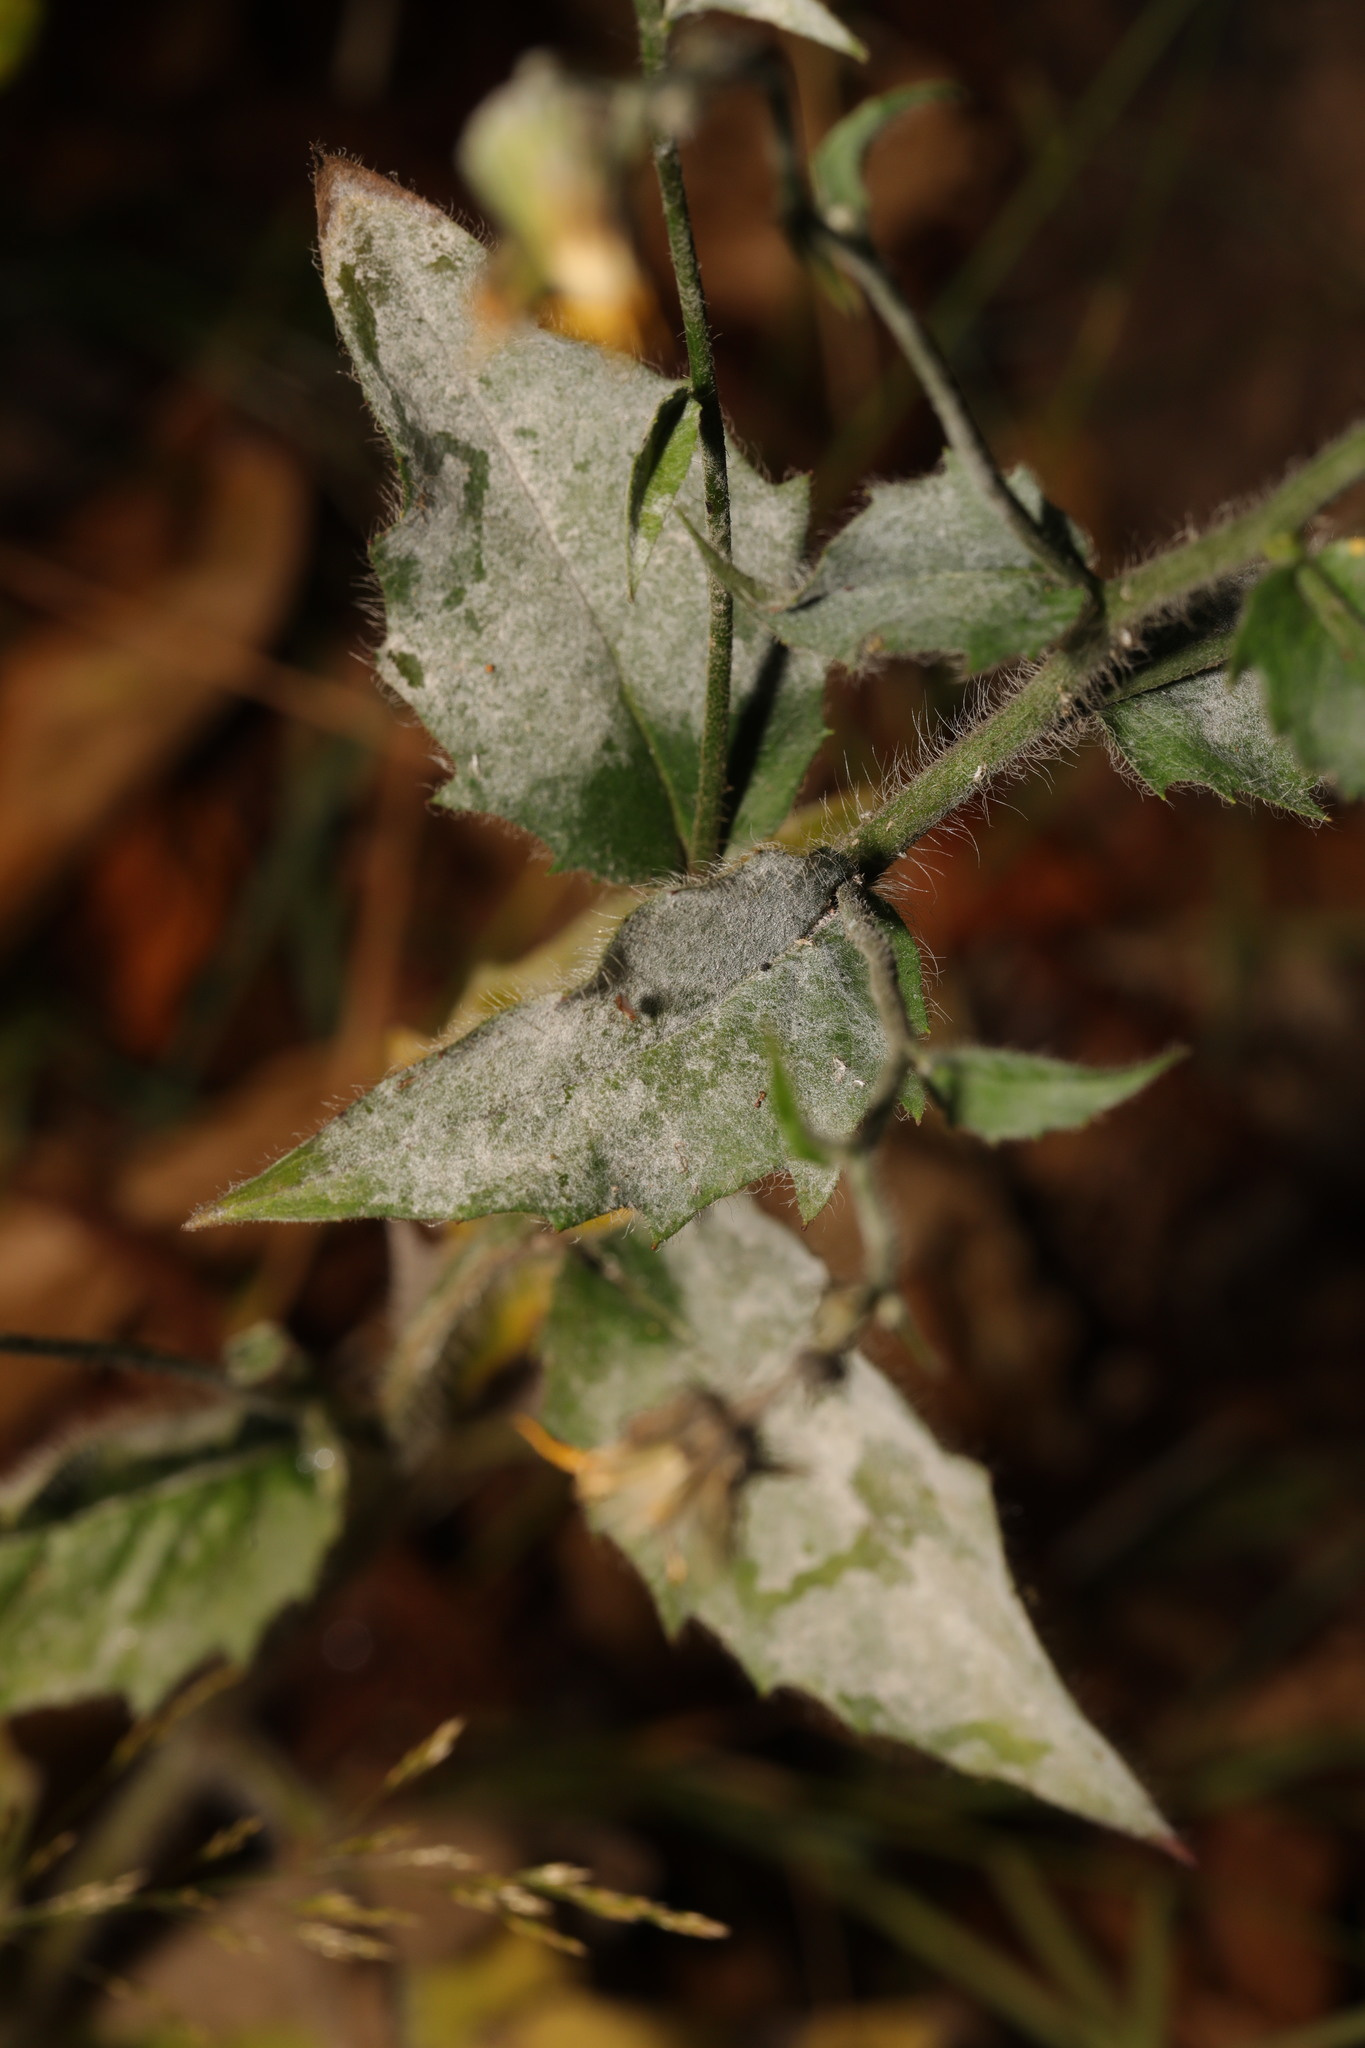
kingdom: Fungi
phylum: Ascomycota
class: Leotiomycetes
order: Helotiales
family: Erysiphaceae
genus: Neoerysiphe
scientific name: Neoerysiphe nevoi
